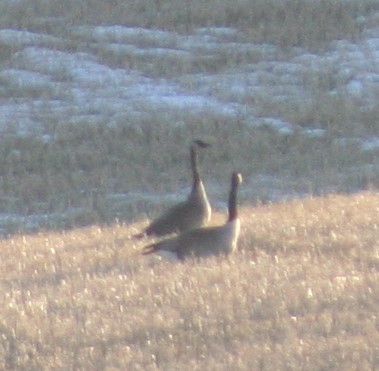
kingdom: Animalia
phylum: Chordata
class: Aves
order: Anseriformes
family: Anatidae
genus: Branta
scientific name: Branta canadensis
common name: Canada goose
